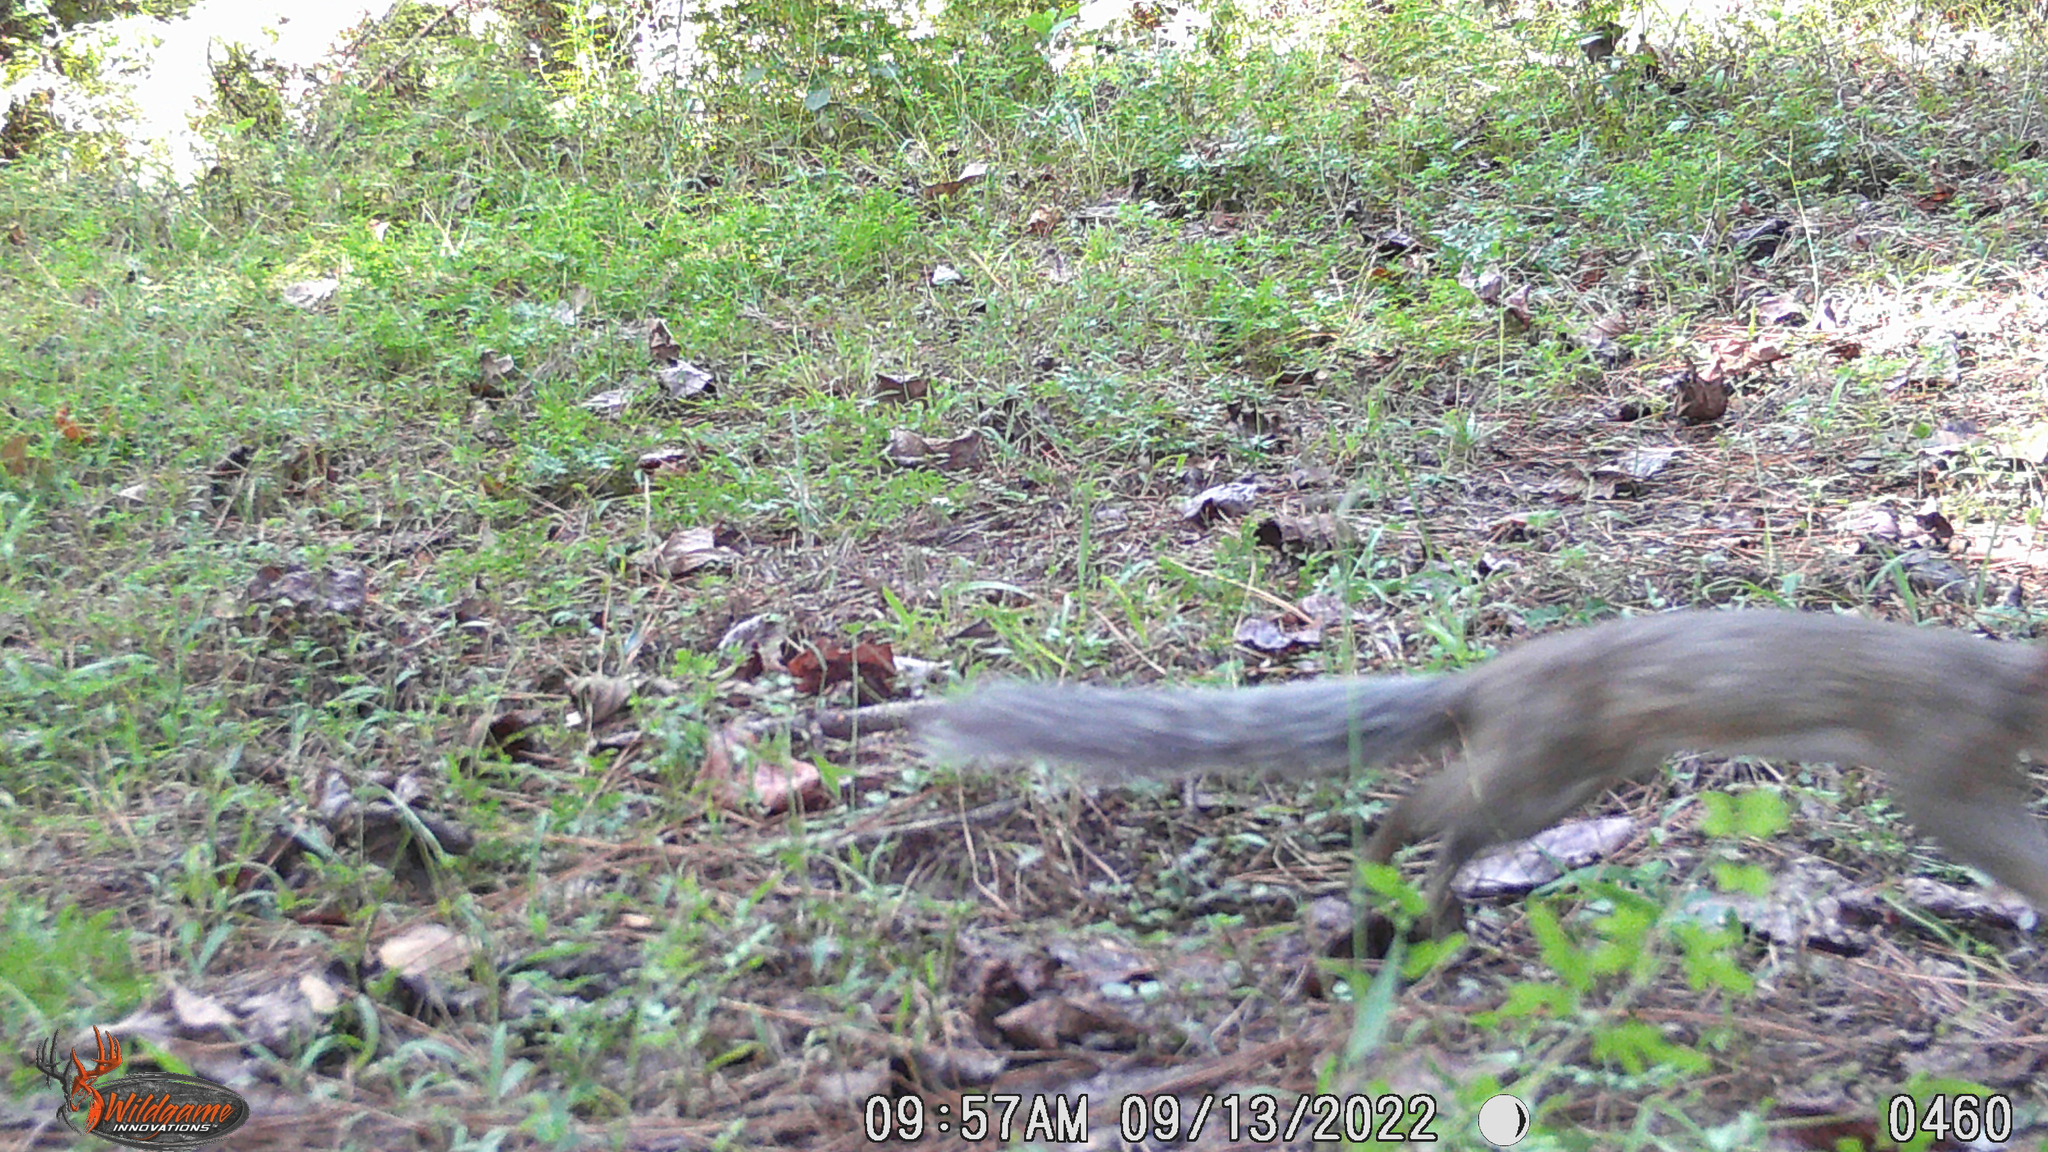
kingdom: Animalia
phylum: Chordata
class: Mammalia
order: Rodentia
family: Sciuridae
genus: Sciurus
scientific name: Sciurus carolinensis
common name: Eastern gray squirrel
